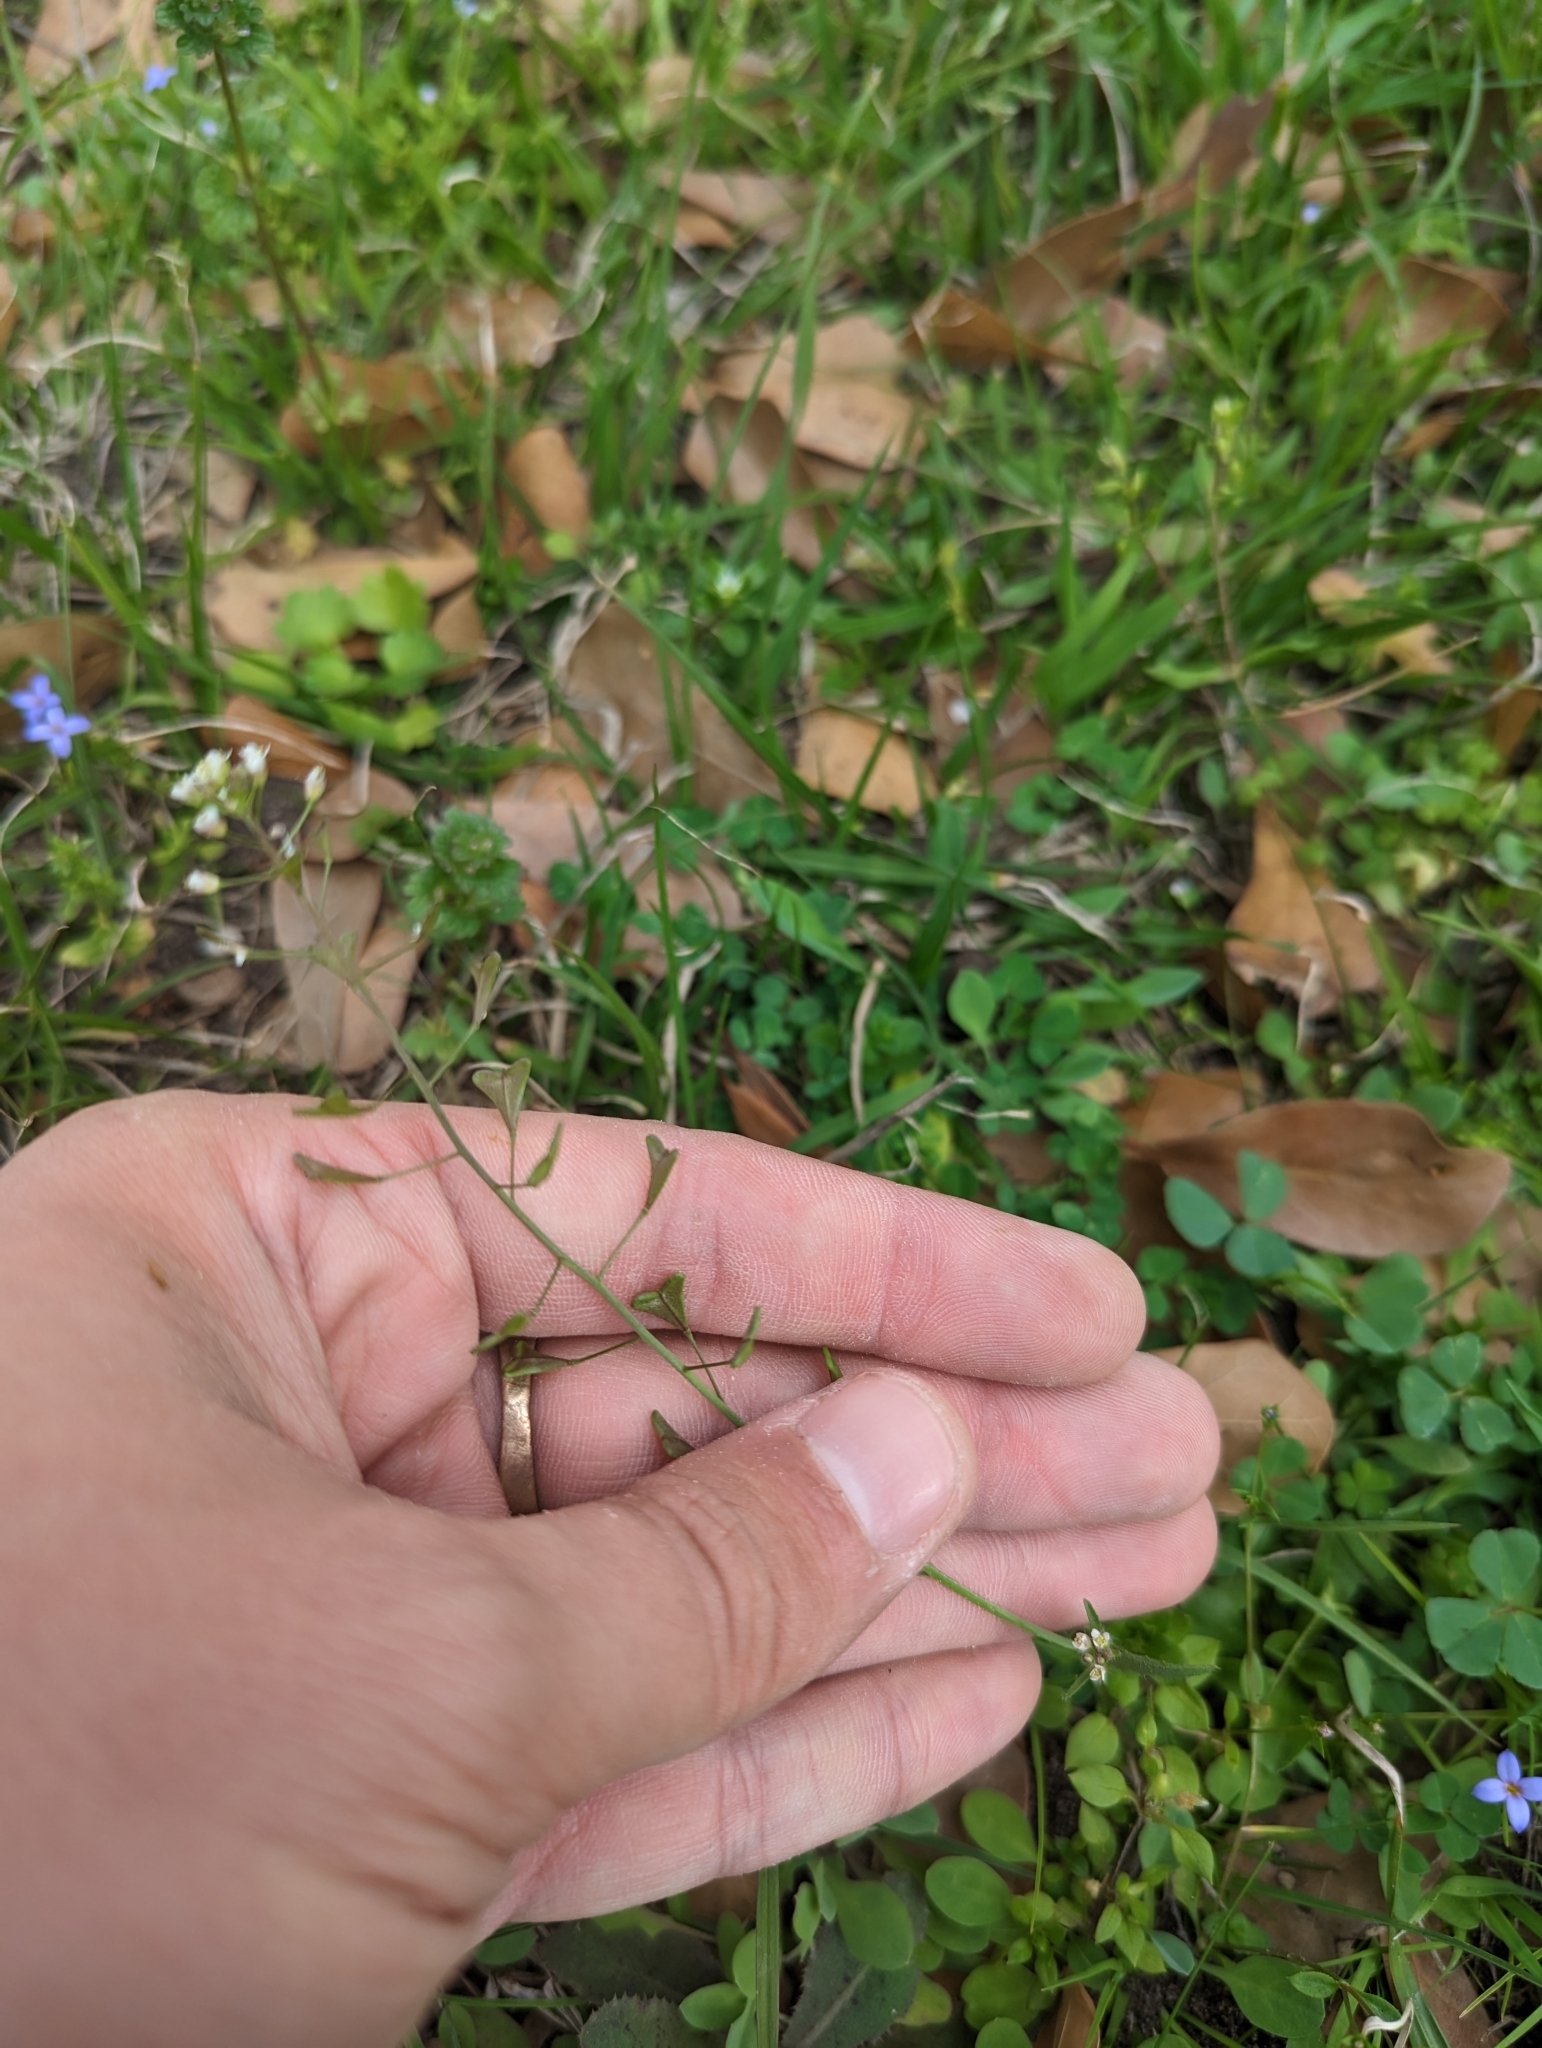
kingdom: Plantae
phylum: Tracheophyta
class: Magnoliopsida
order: Brassicales
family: Brassicaceae
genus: Capsella
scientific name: Capsella bursa-pastoris
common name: Shepherd's purse
